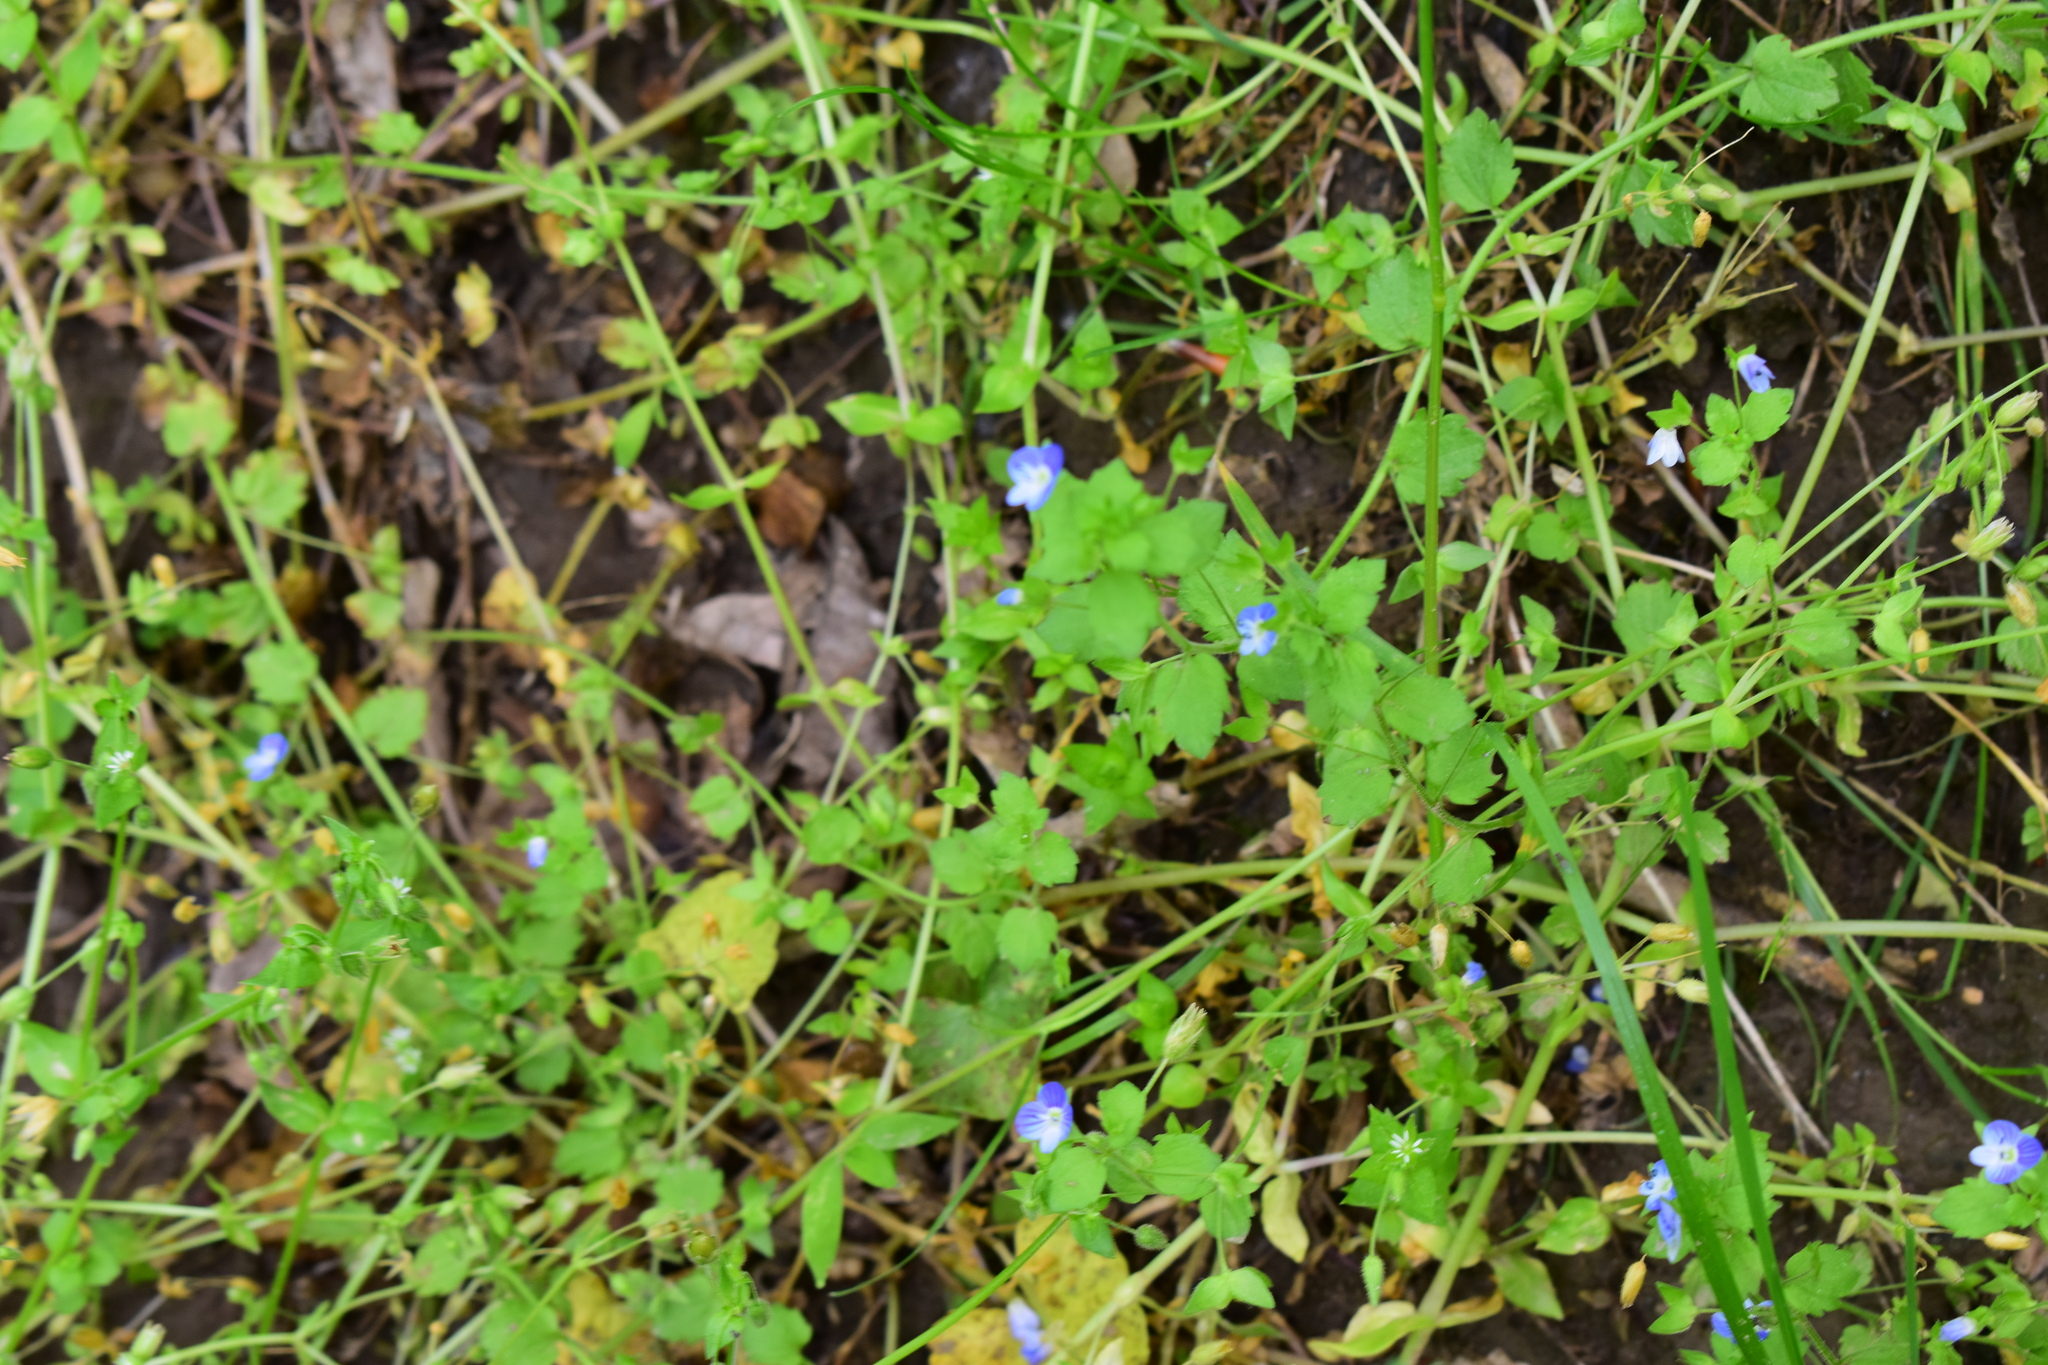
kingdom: Plantae
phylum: Tracheophyta
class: Magnoliopsida
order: Lamiales
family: Plantaginaceae
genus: Veronica
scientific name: Veronica persica
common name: Common field-speedwell
